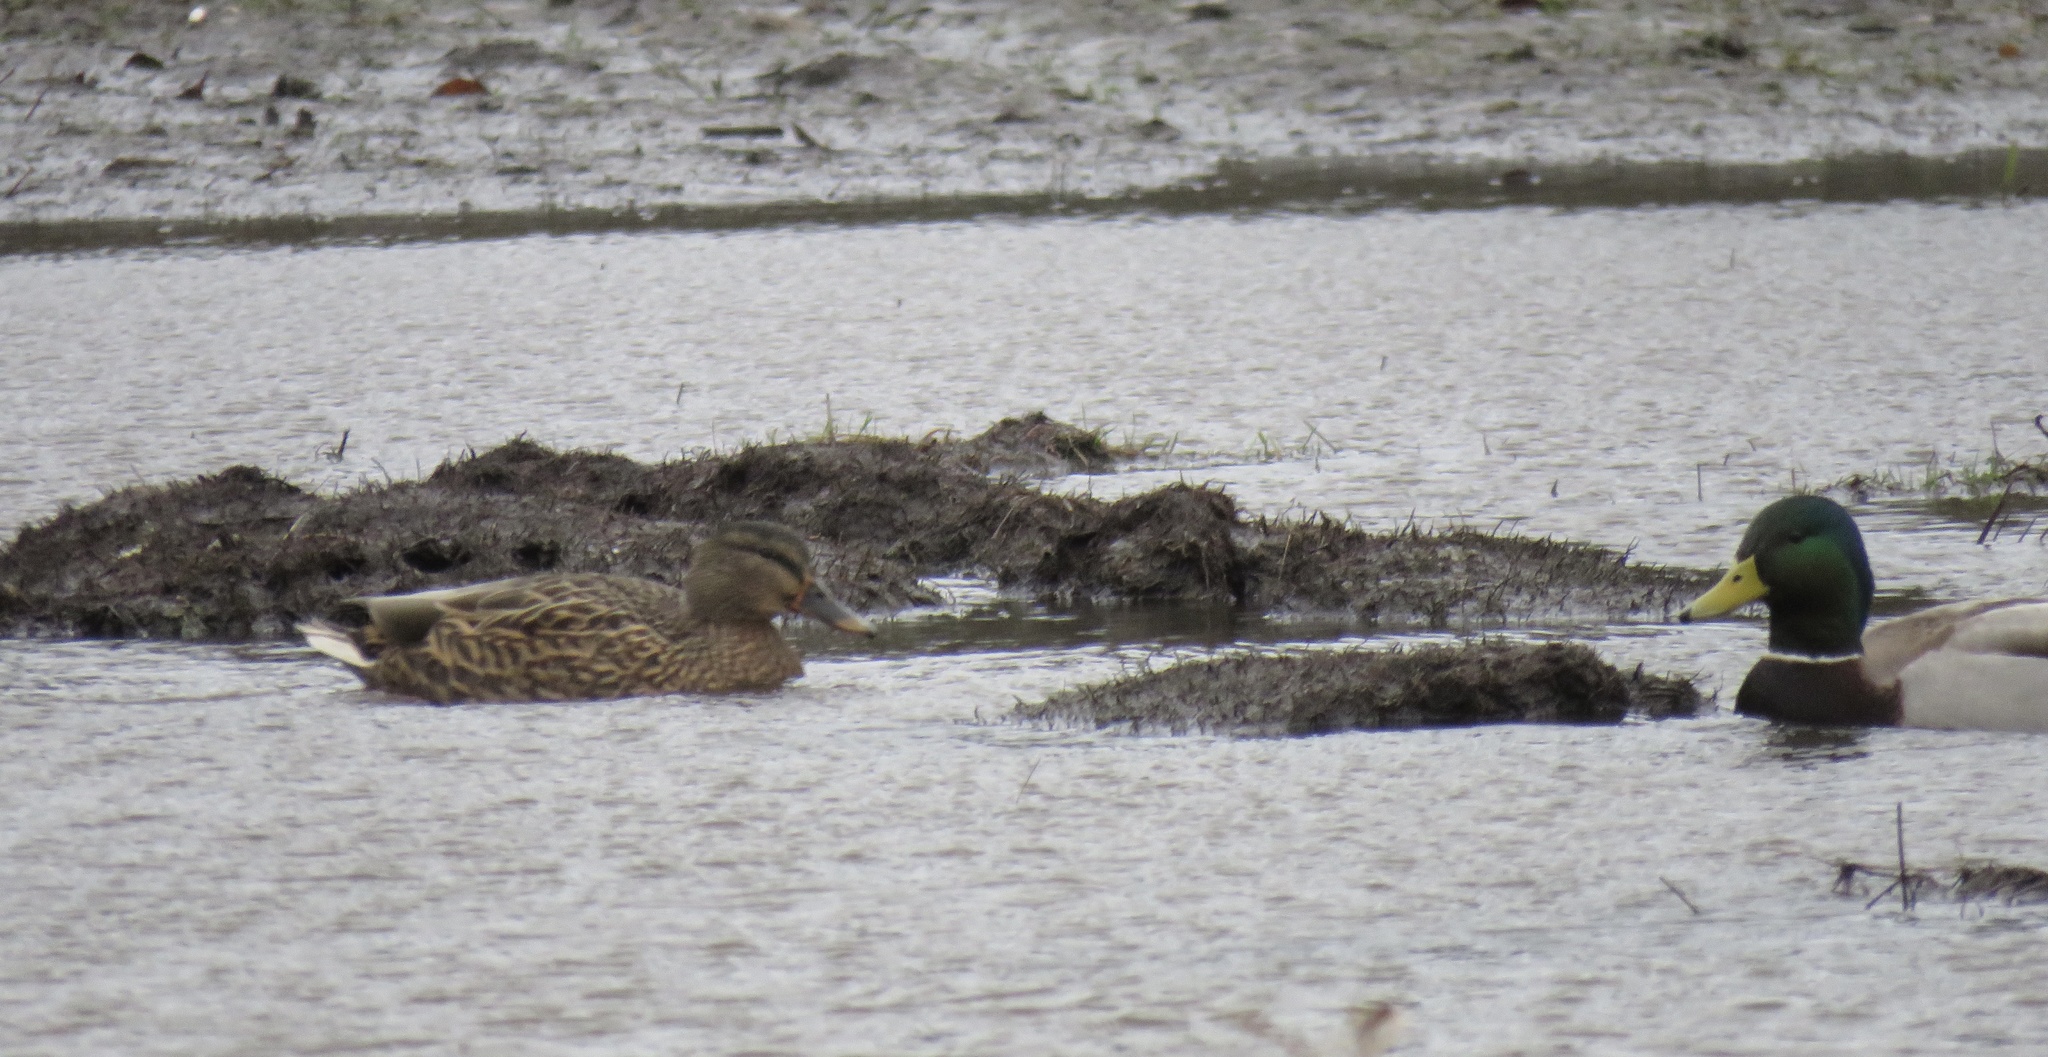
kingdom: Animalia
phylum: Chordata
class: Aves
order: Anseriformes
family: Anatidae
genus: Anas
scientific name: Anas platyrhynchos
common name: Mallard
